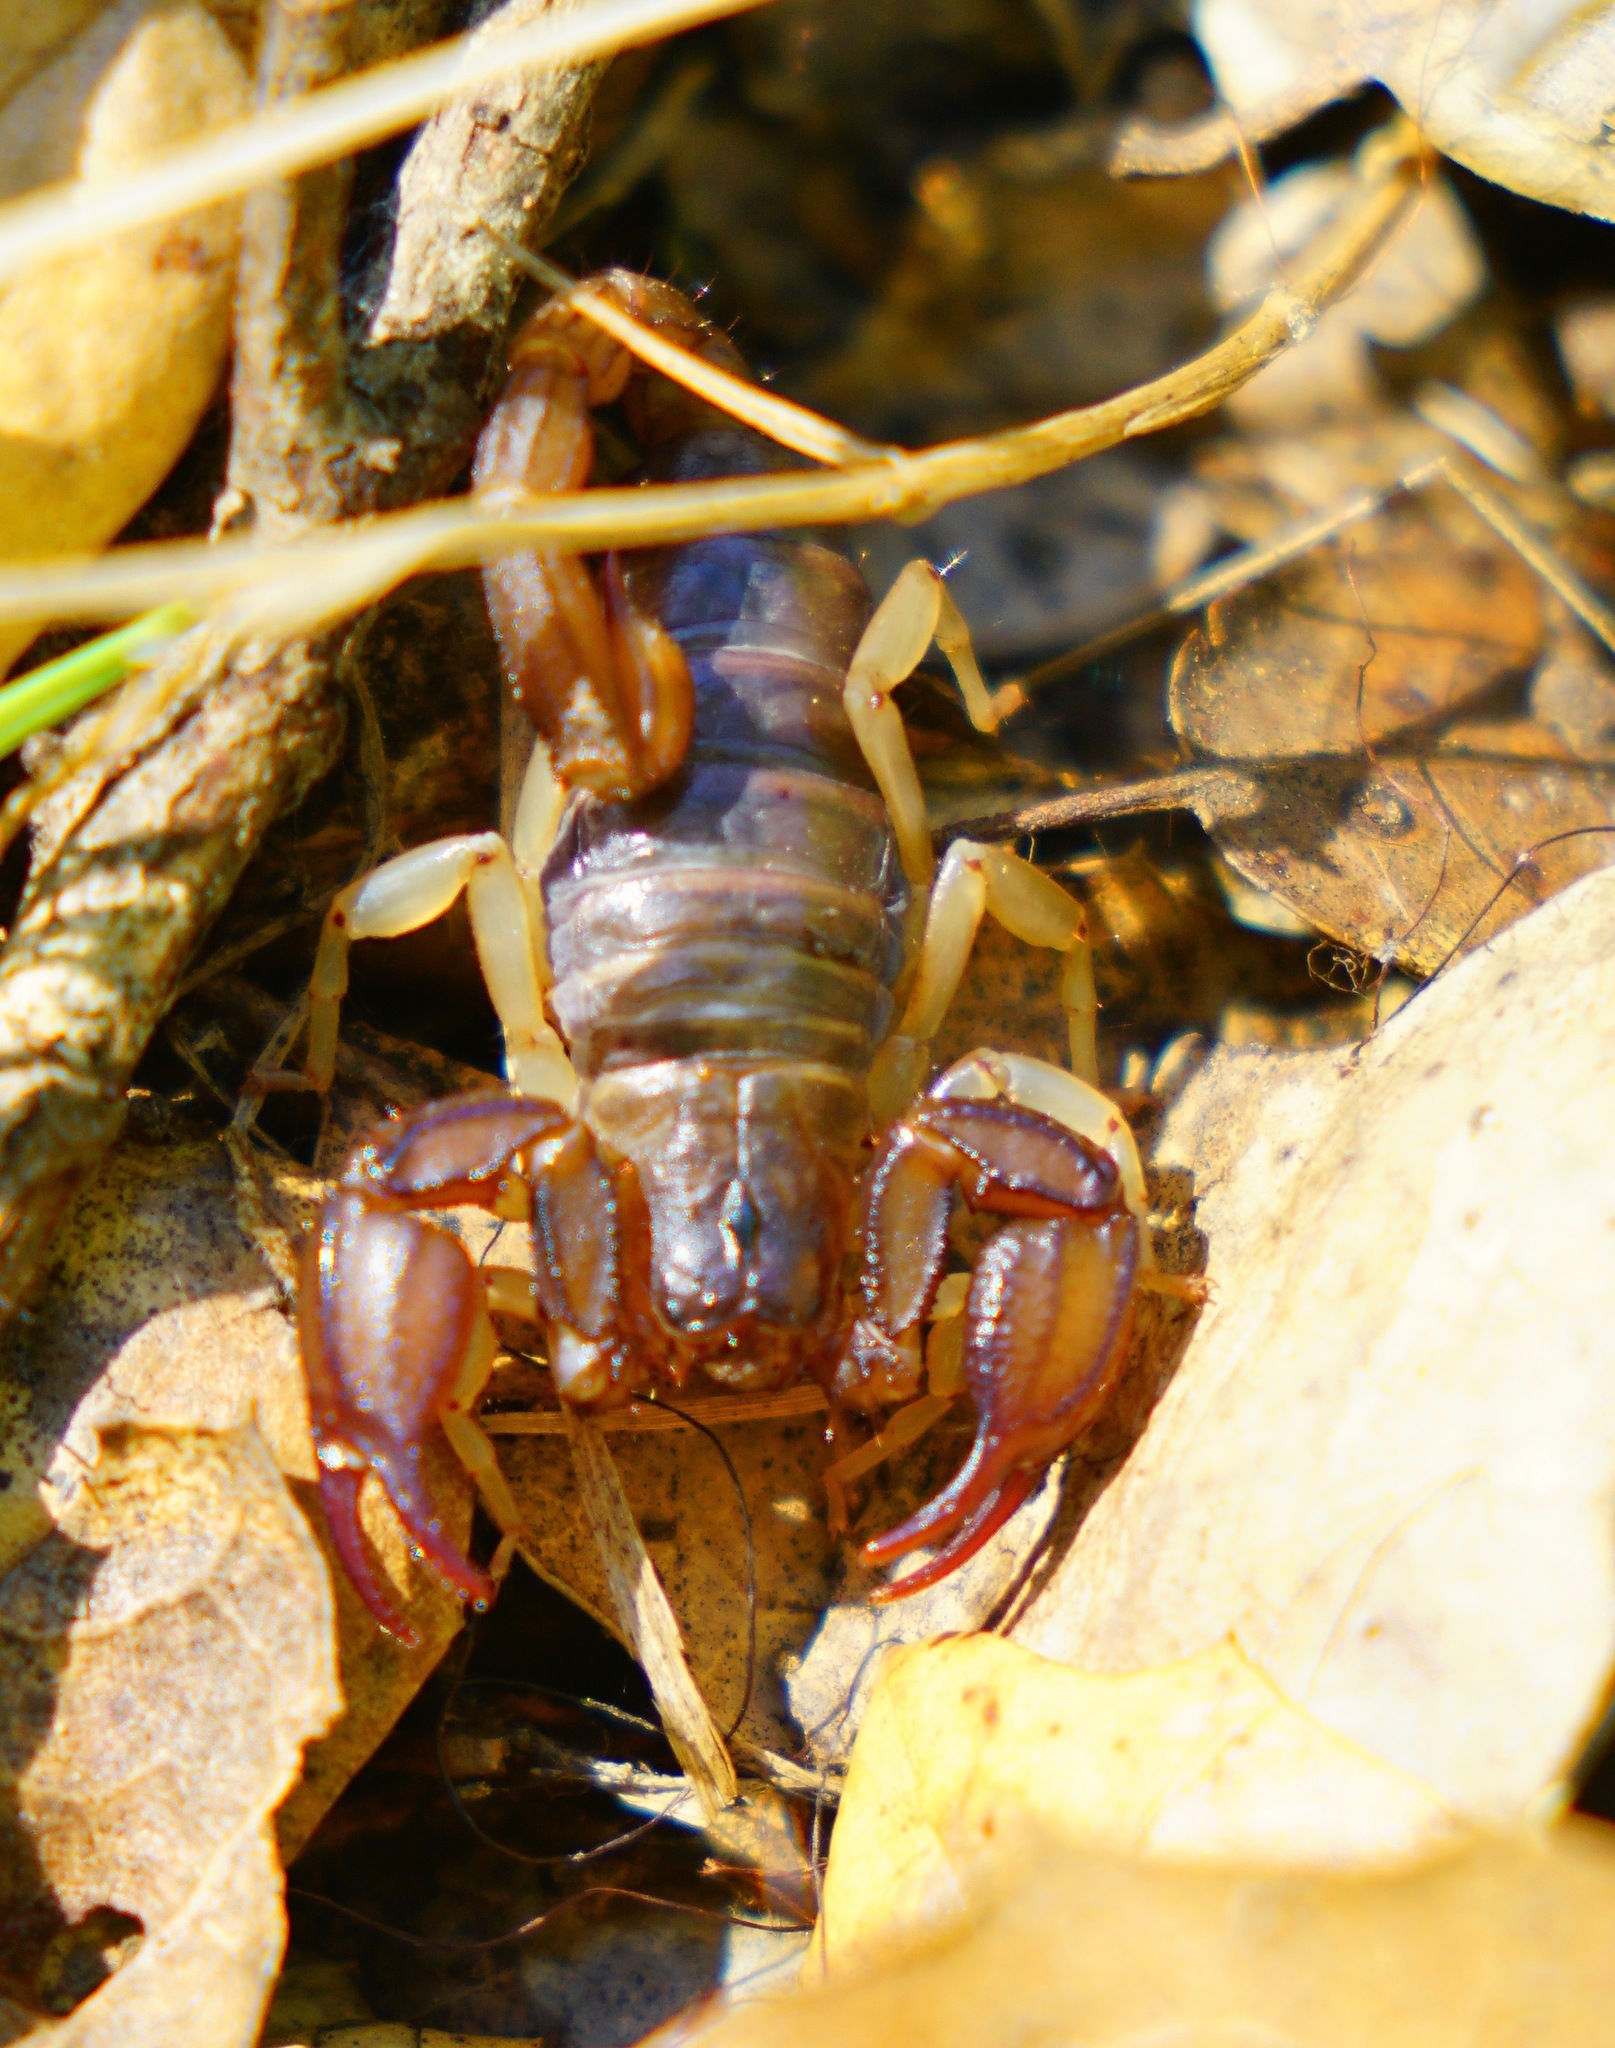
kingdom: Animalia
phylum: Arthropoda
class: Arachnida
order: Scorpiones
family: Chactidae
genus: Uroctonus
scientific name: Uroctonus mordax
